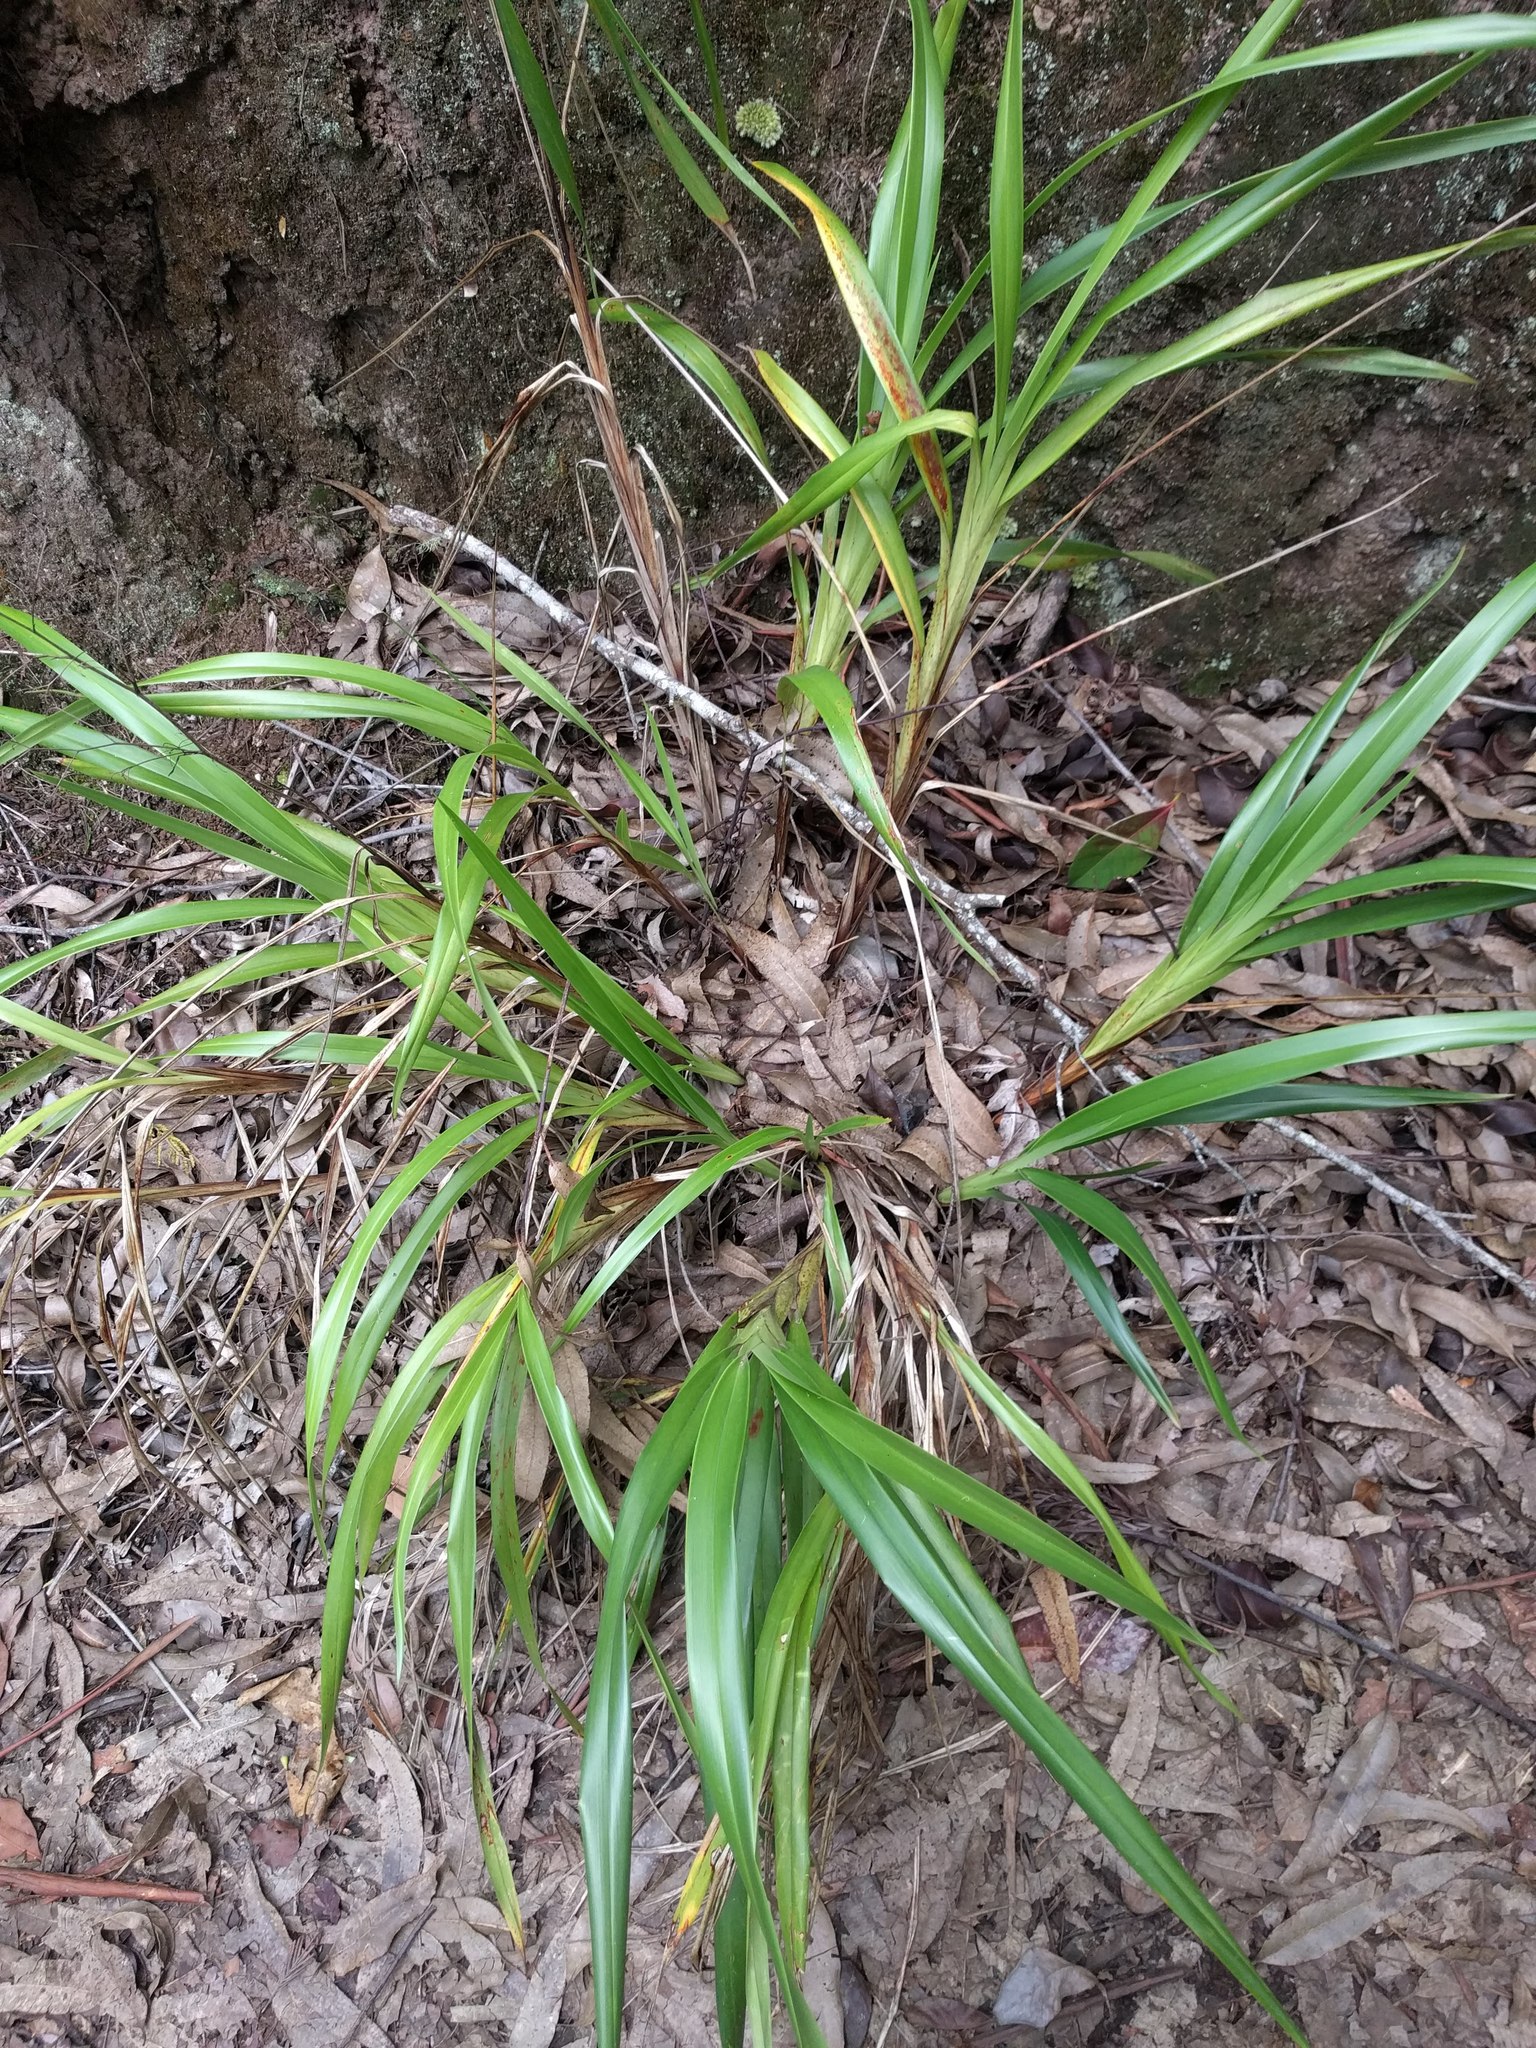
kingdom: Plantae
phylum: Tracheophyta
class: Liliopsida
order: Asparagales
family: Asphodelaceae
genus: Dianella
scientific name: Dianella sandwicensis
